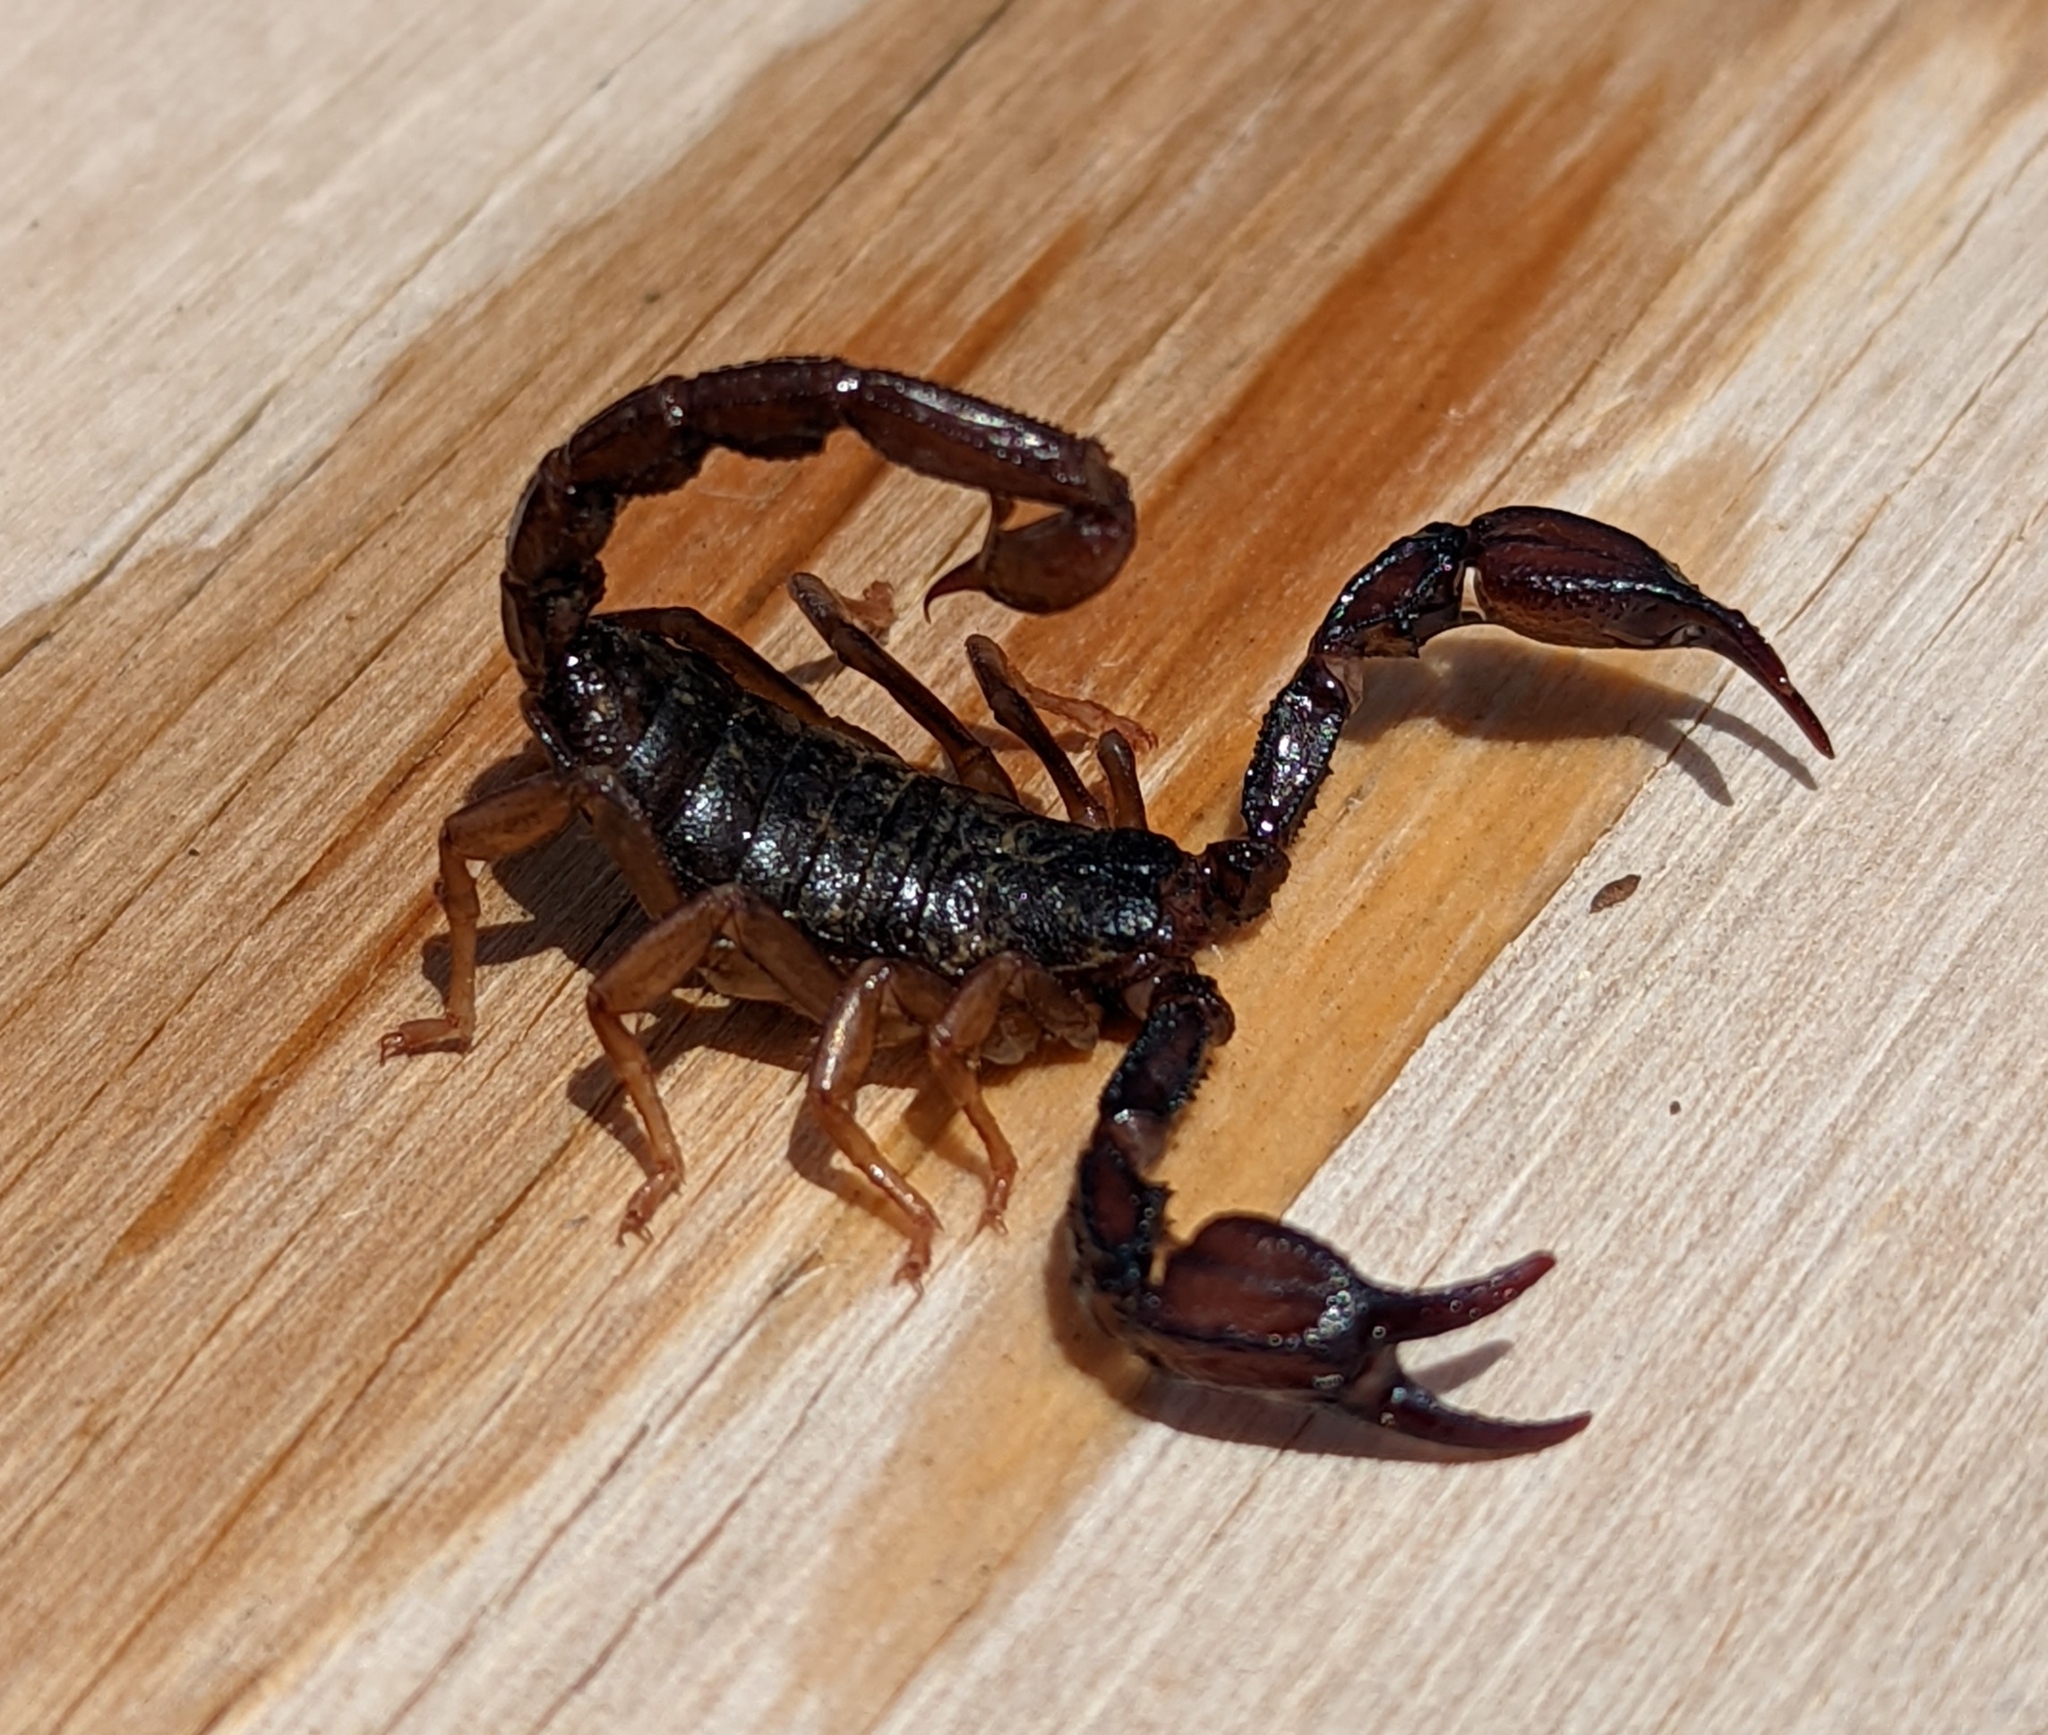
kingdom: Animalia
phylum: Arthropoda
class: Arachnida
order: Scorpiones
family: Chactidae
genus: Uroctonus
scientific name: Uroctonus mordax
